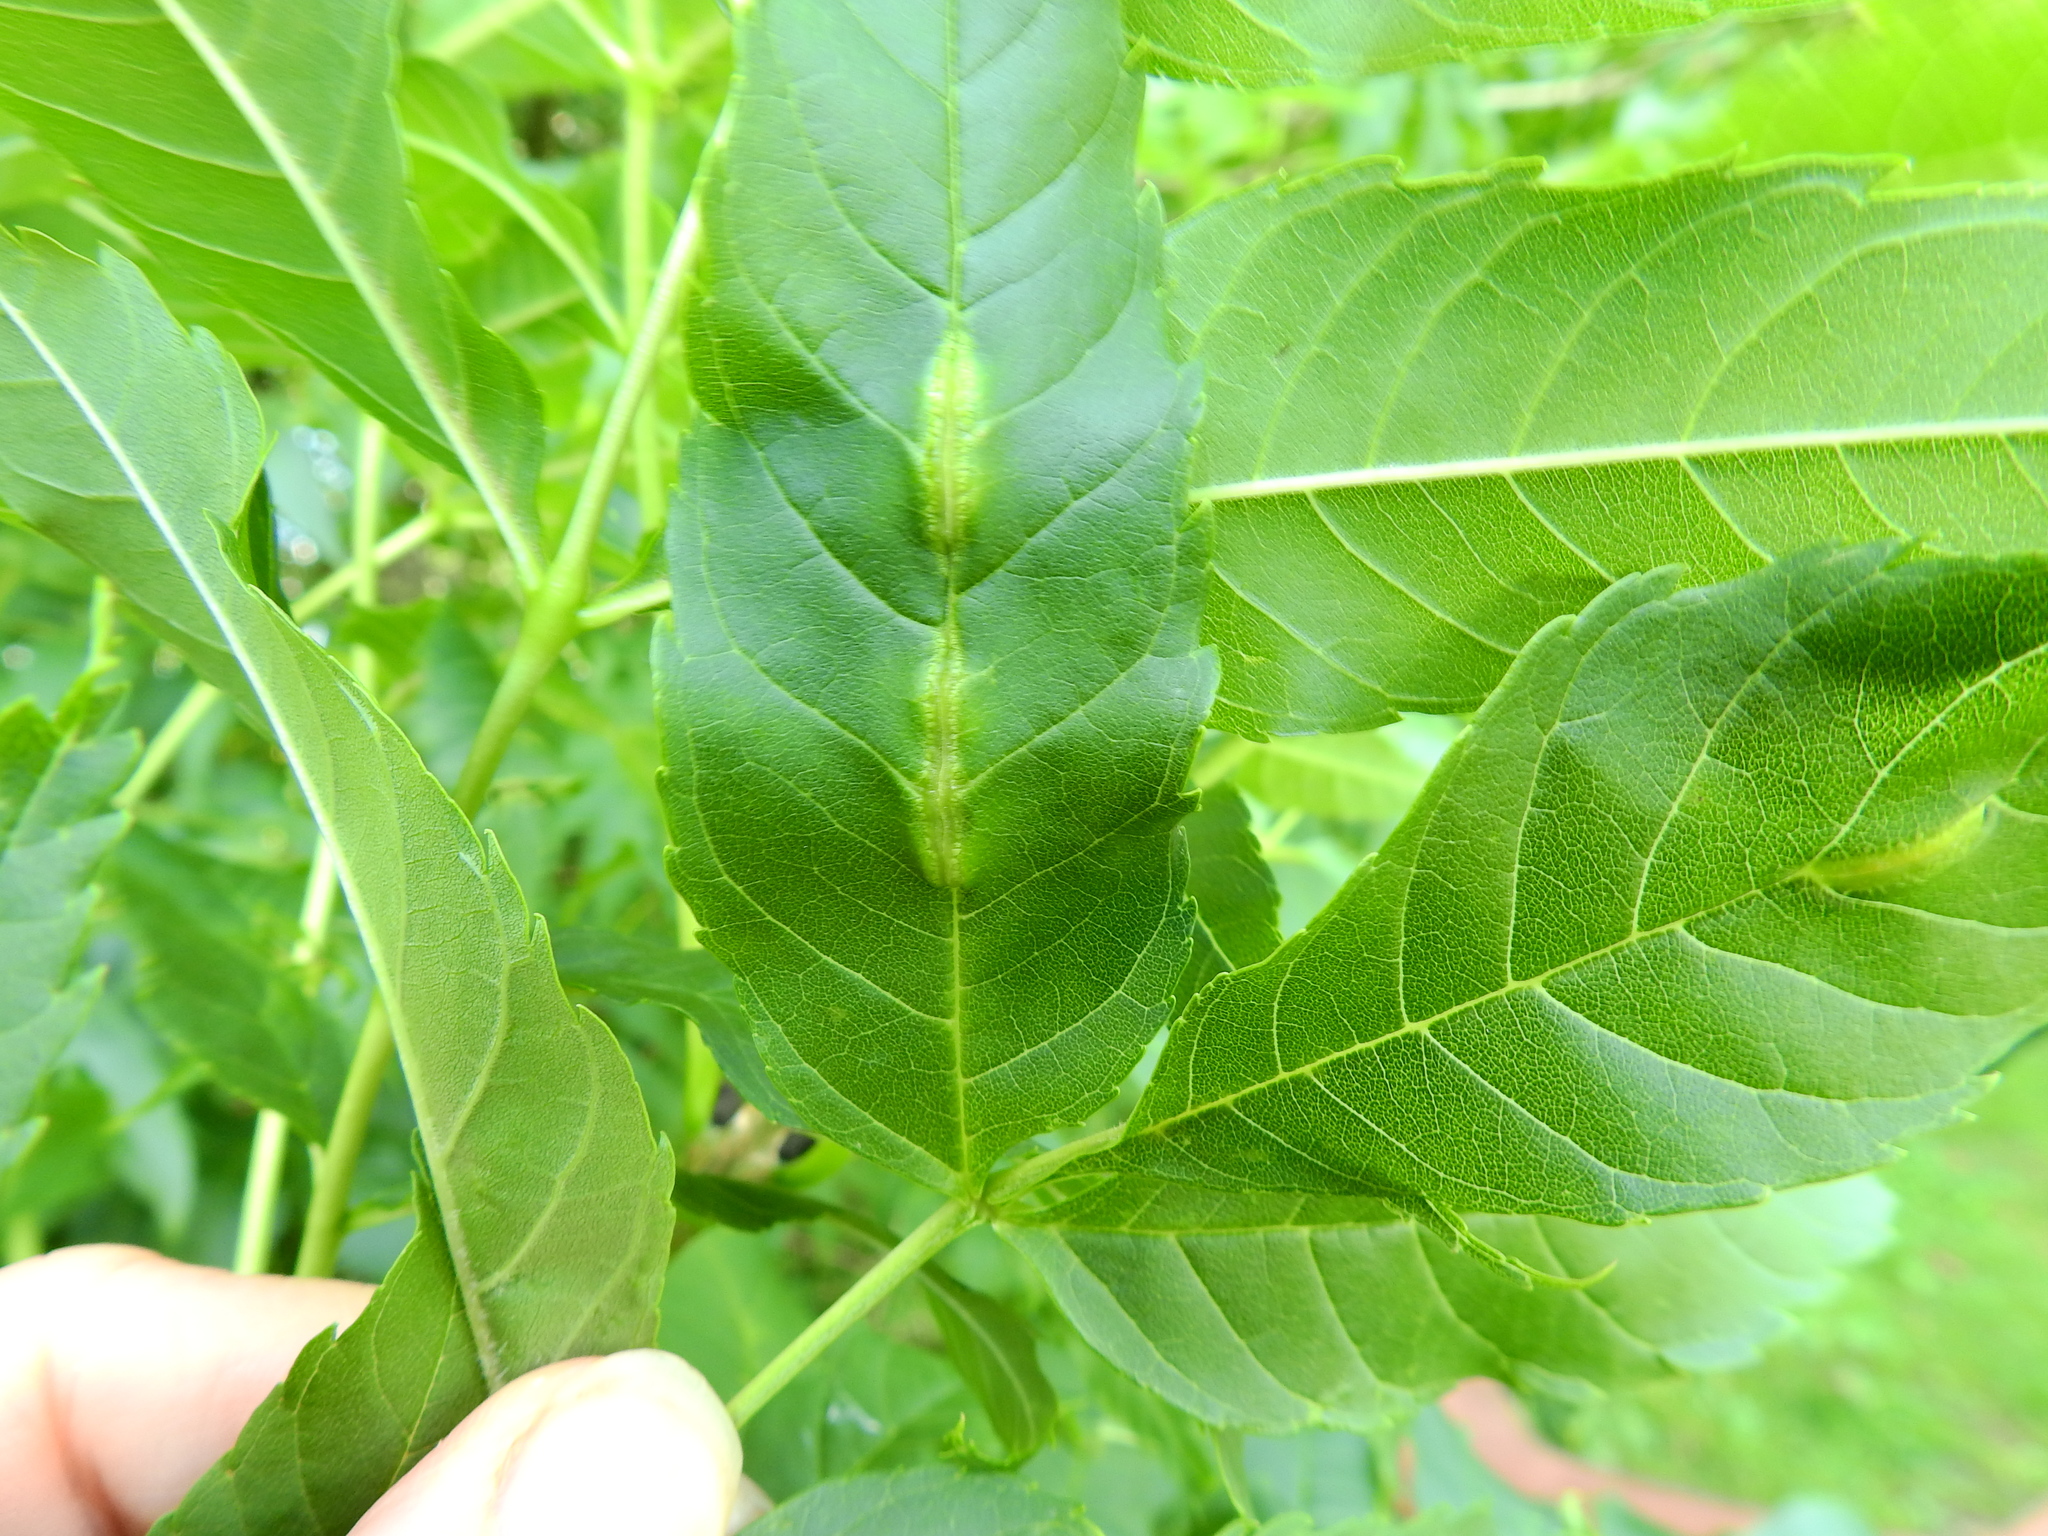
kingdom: Animalia
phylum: Arthropoda
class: Insecta
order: Diptera
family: Cecidomyiidae
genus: Dasineura
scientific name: Dasineura fraxini
